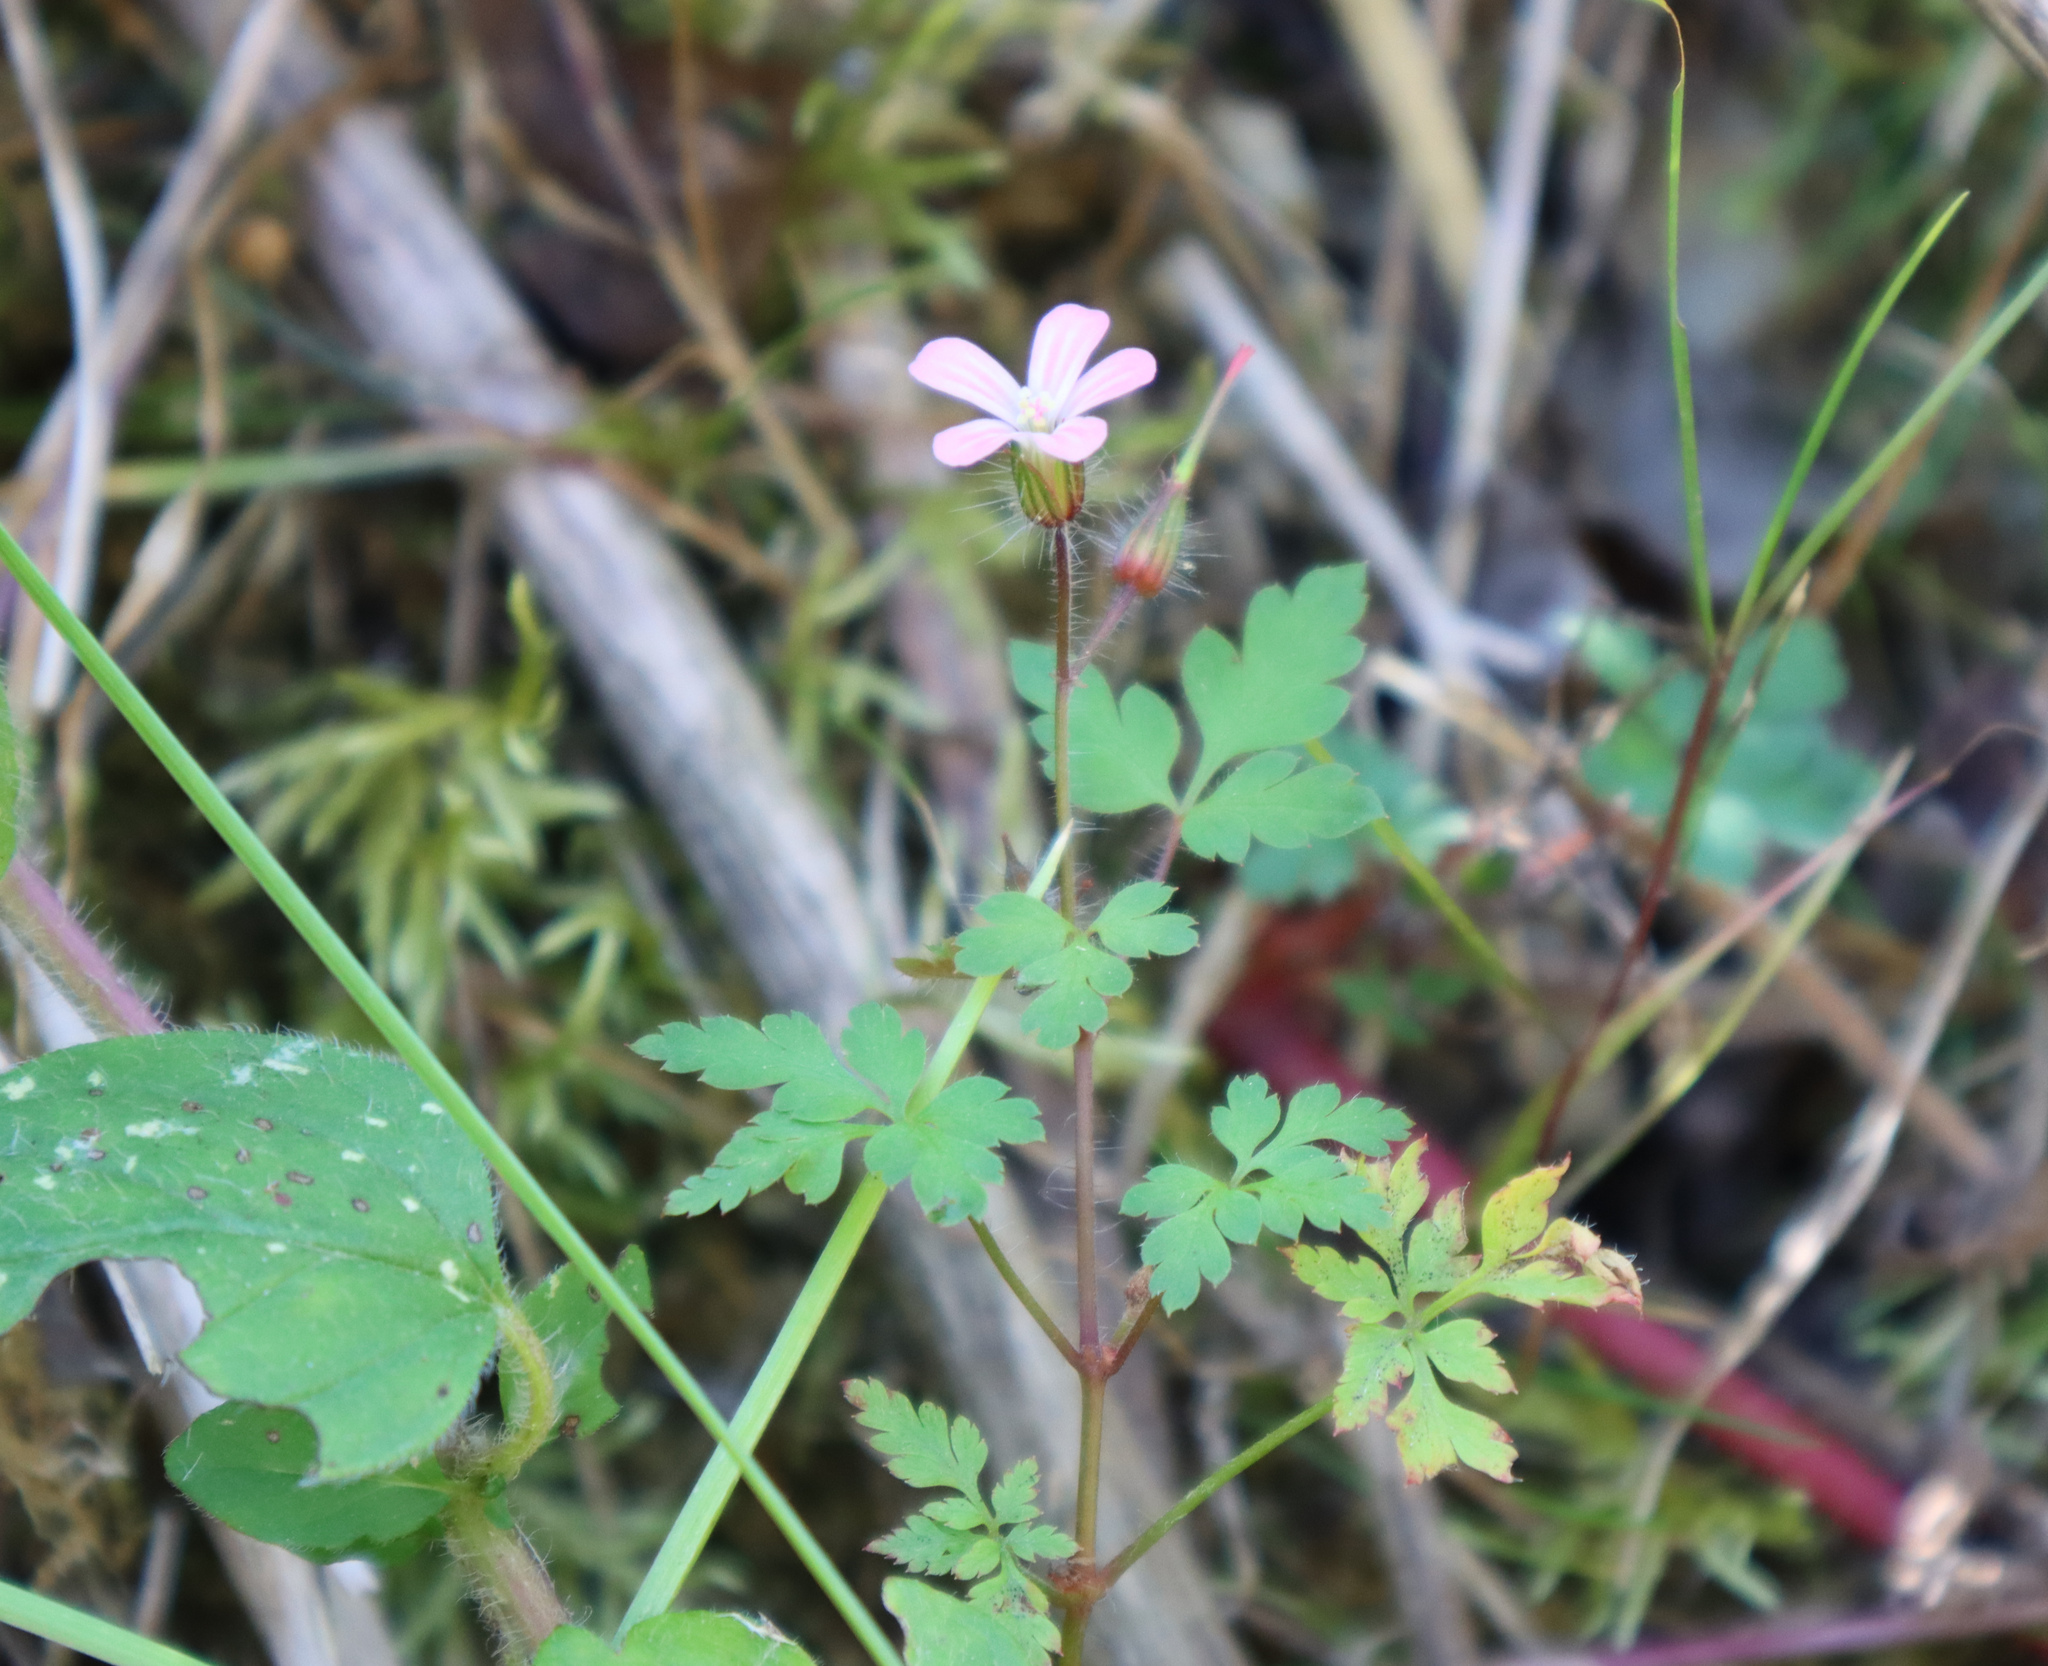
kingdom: Plantae
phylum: Tracheophyta
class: Magnoliopsida
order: Geraniales
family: Geraniaceae
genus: Geranium
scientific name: Geranium robertianum
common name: Herb-robert
